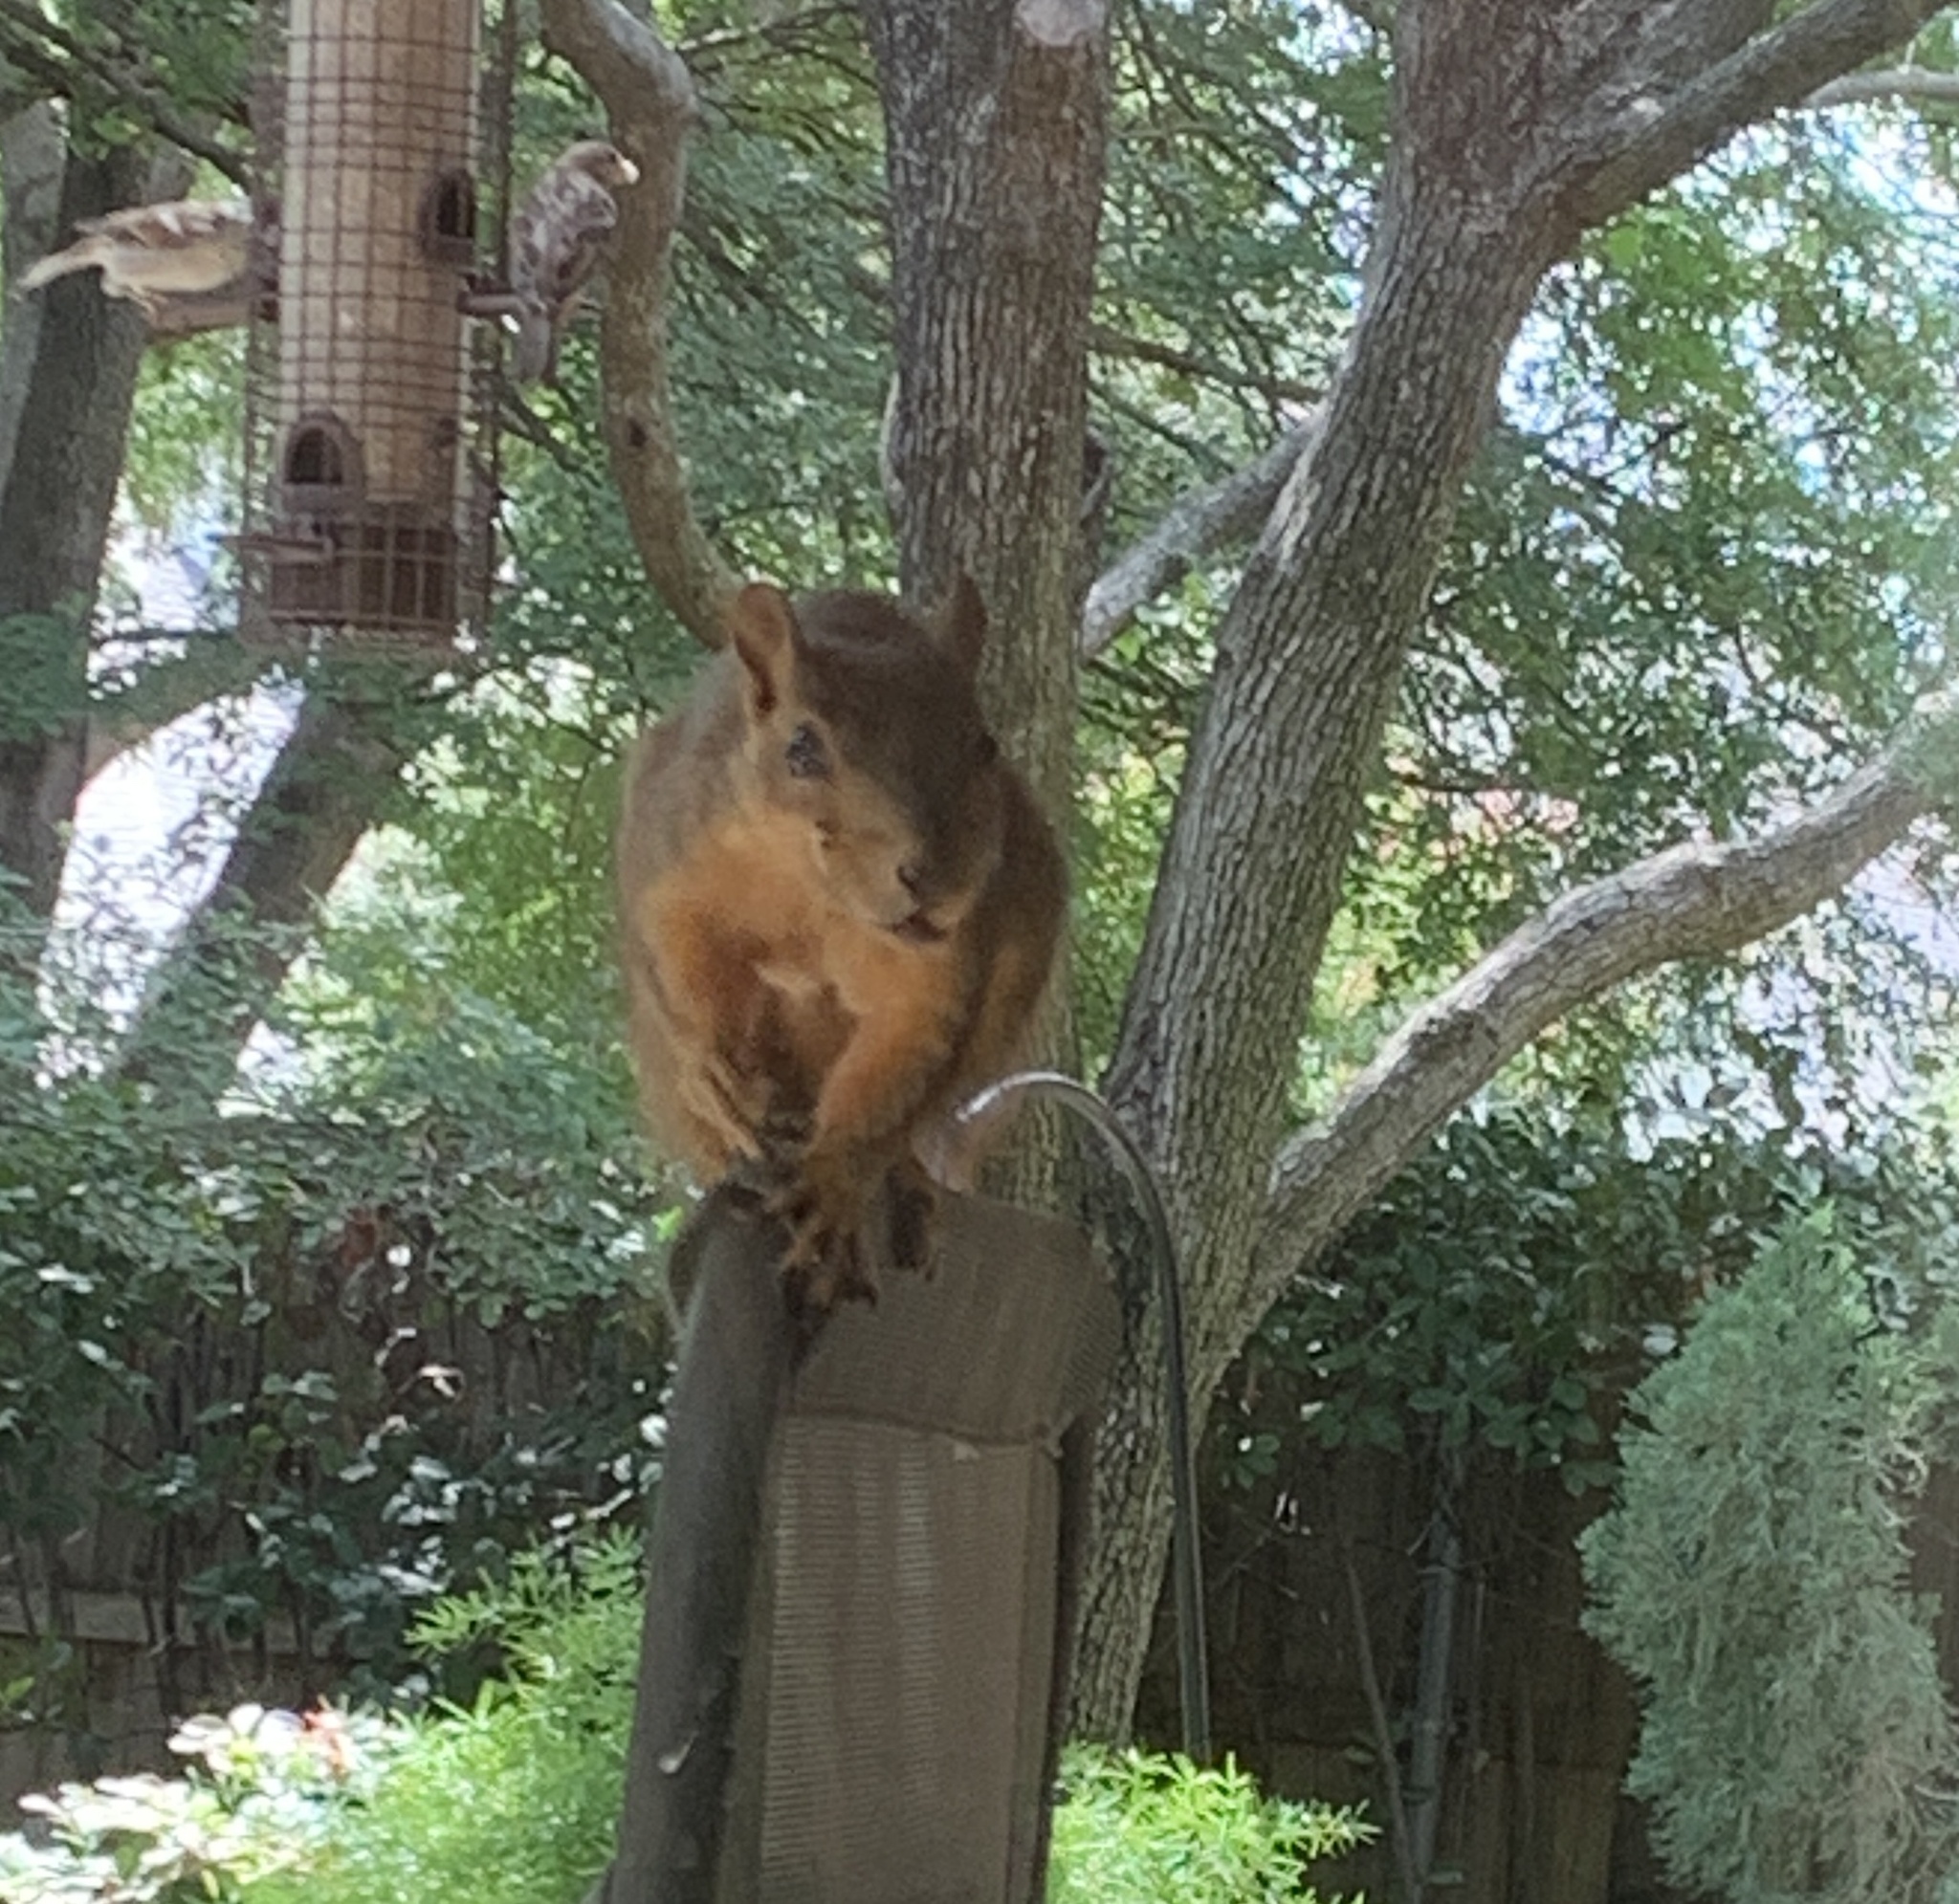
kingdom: Animalia
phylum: Chordata
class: Mammalia
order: Rodentia
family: Sciuridae
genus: Sciurus
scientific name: Sciurus niger
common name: Fox squirrel
